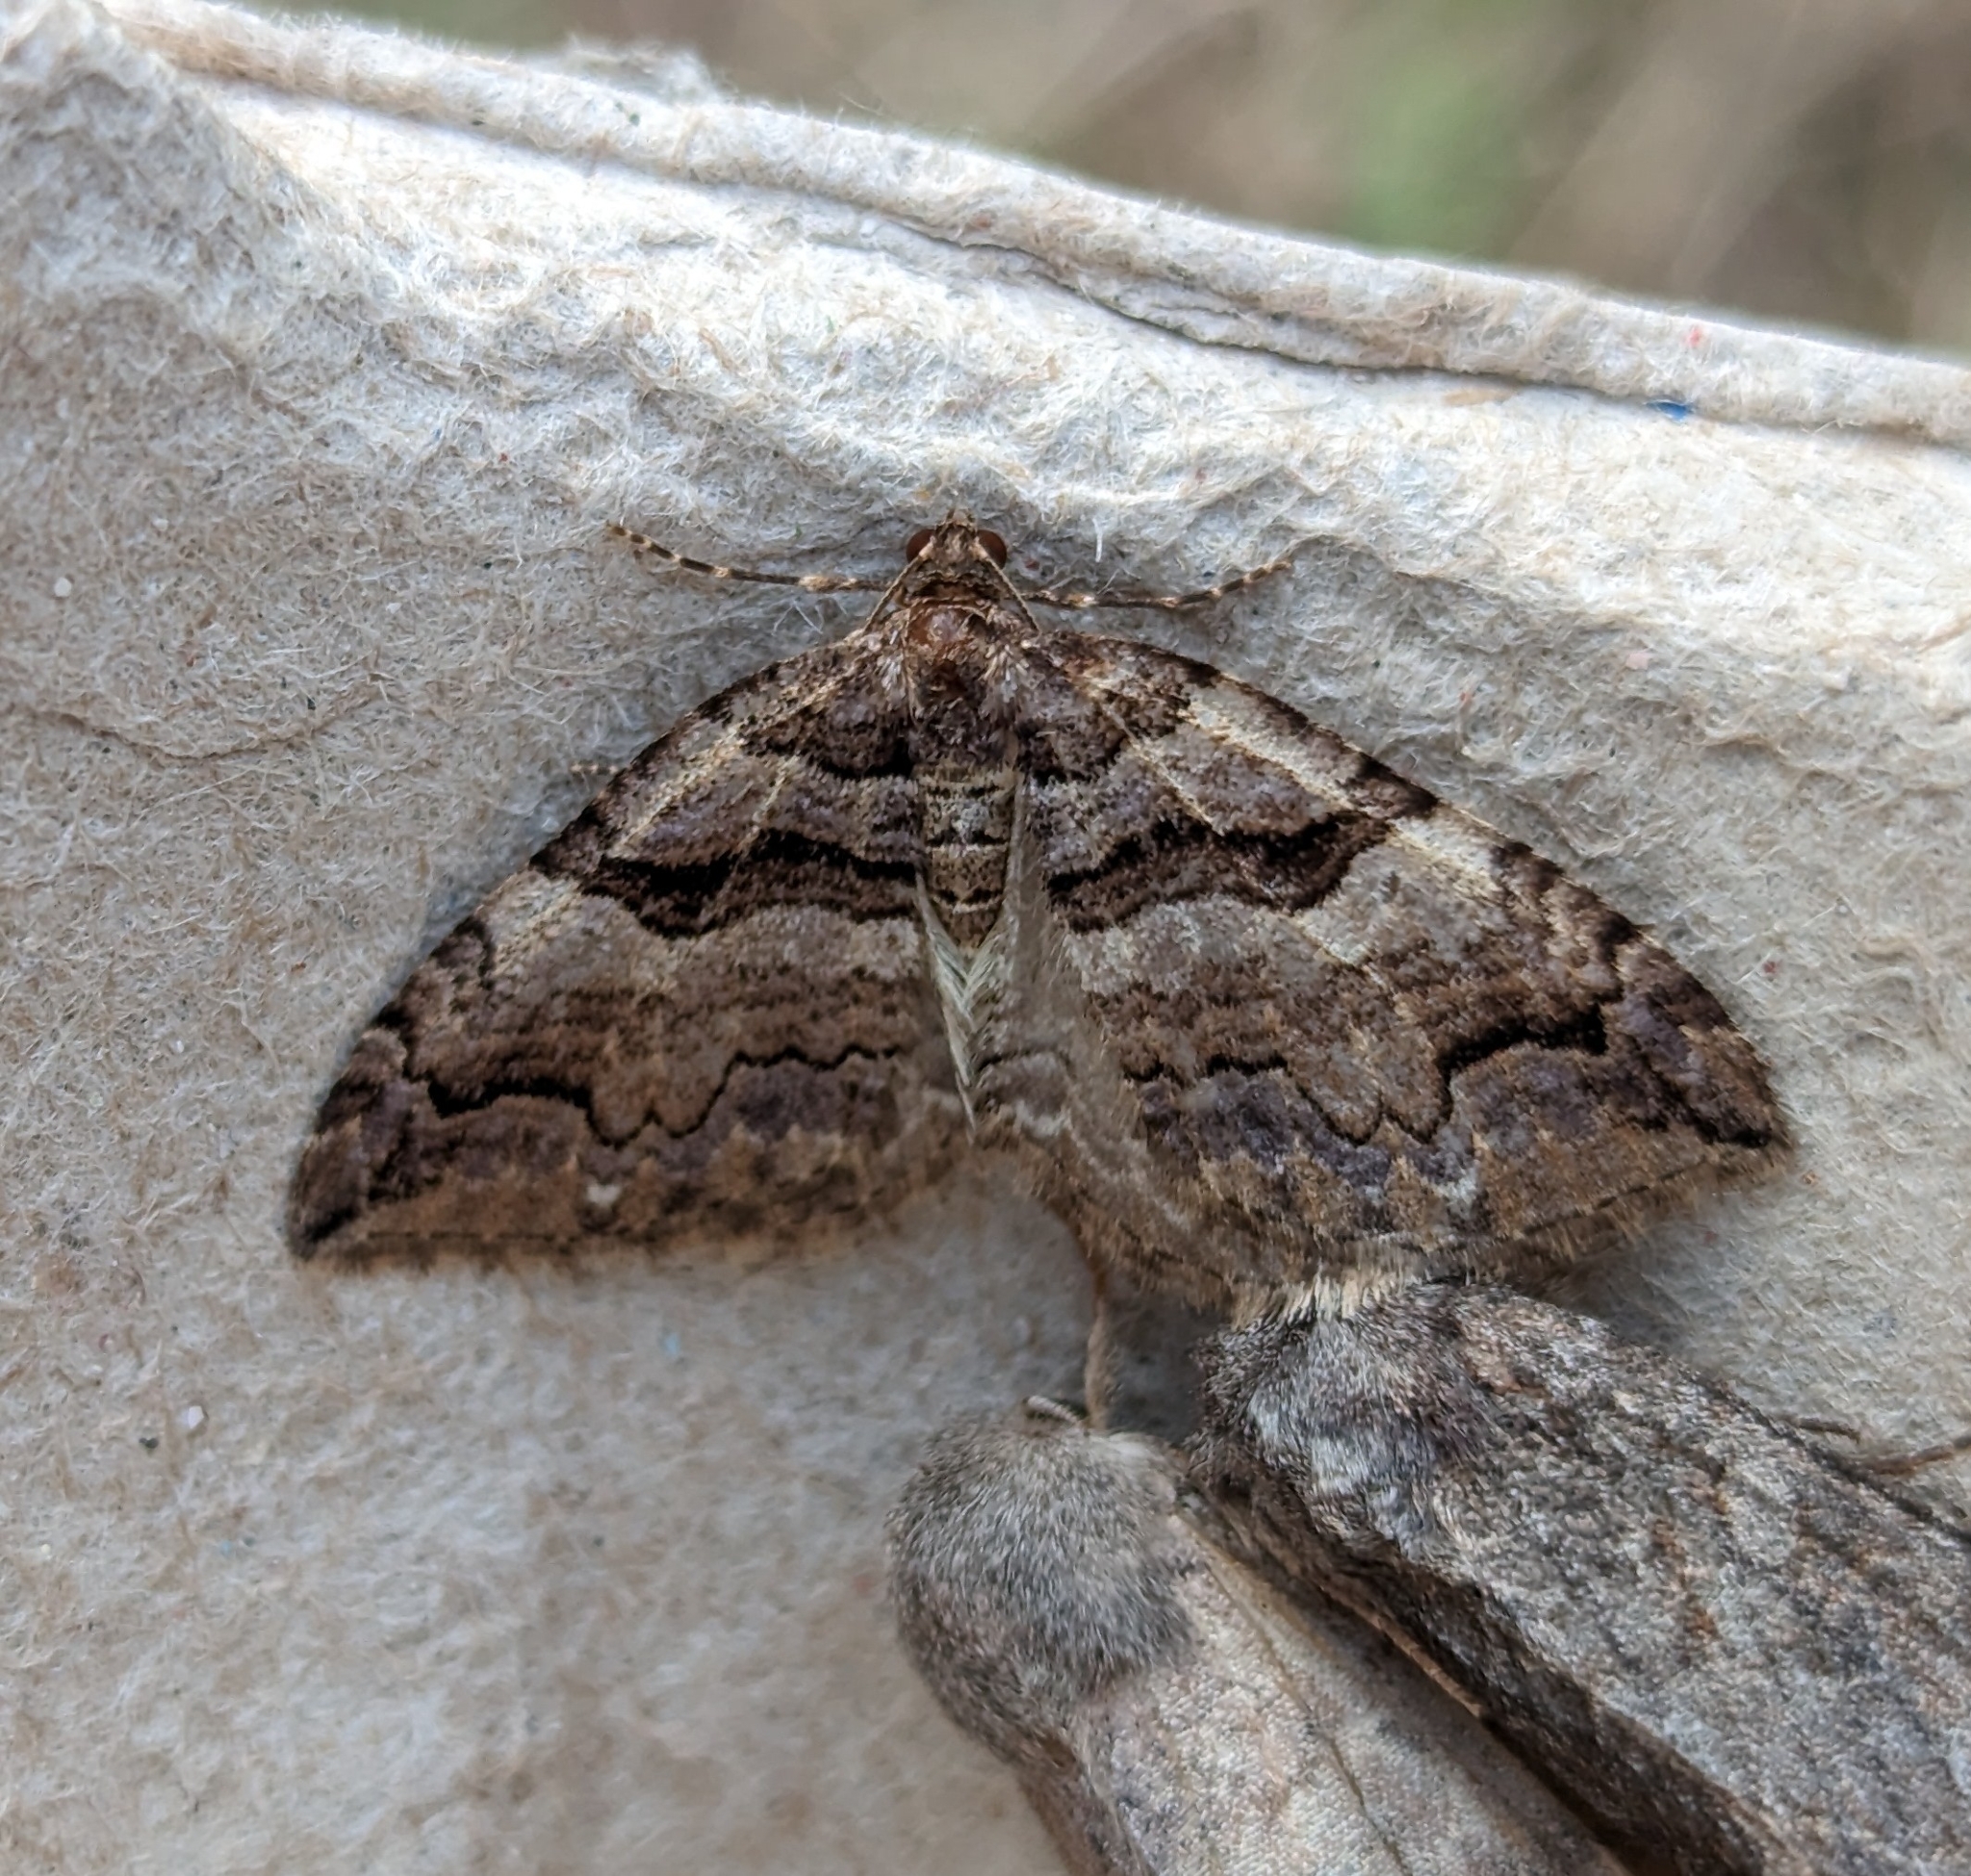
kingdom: Animalia
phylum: Arthropoda
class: Insecta
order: Lepidoptera
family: Geometridae
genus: Anticlea
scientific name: Anticlea vasiliata
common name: Variable carpet
